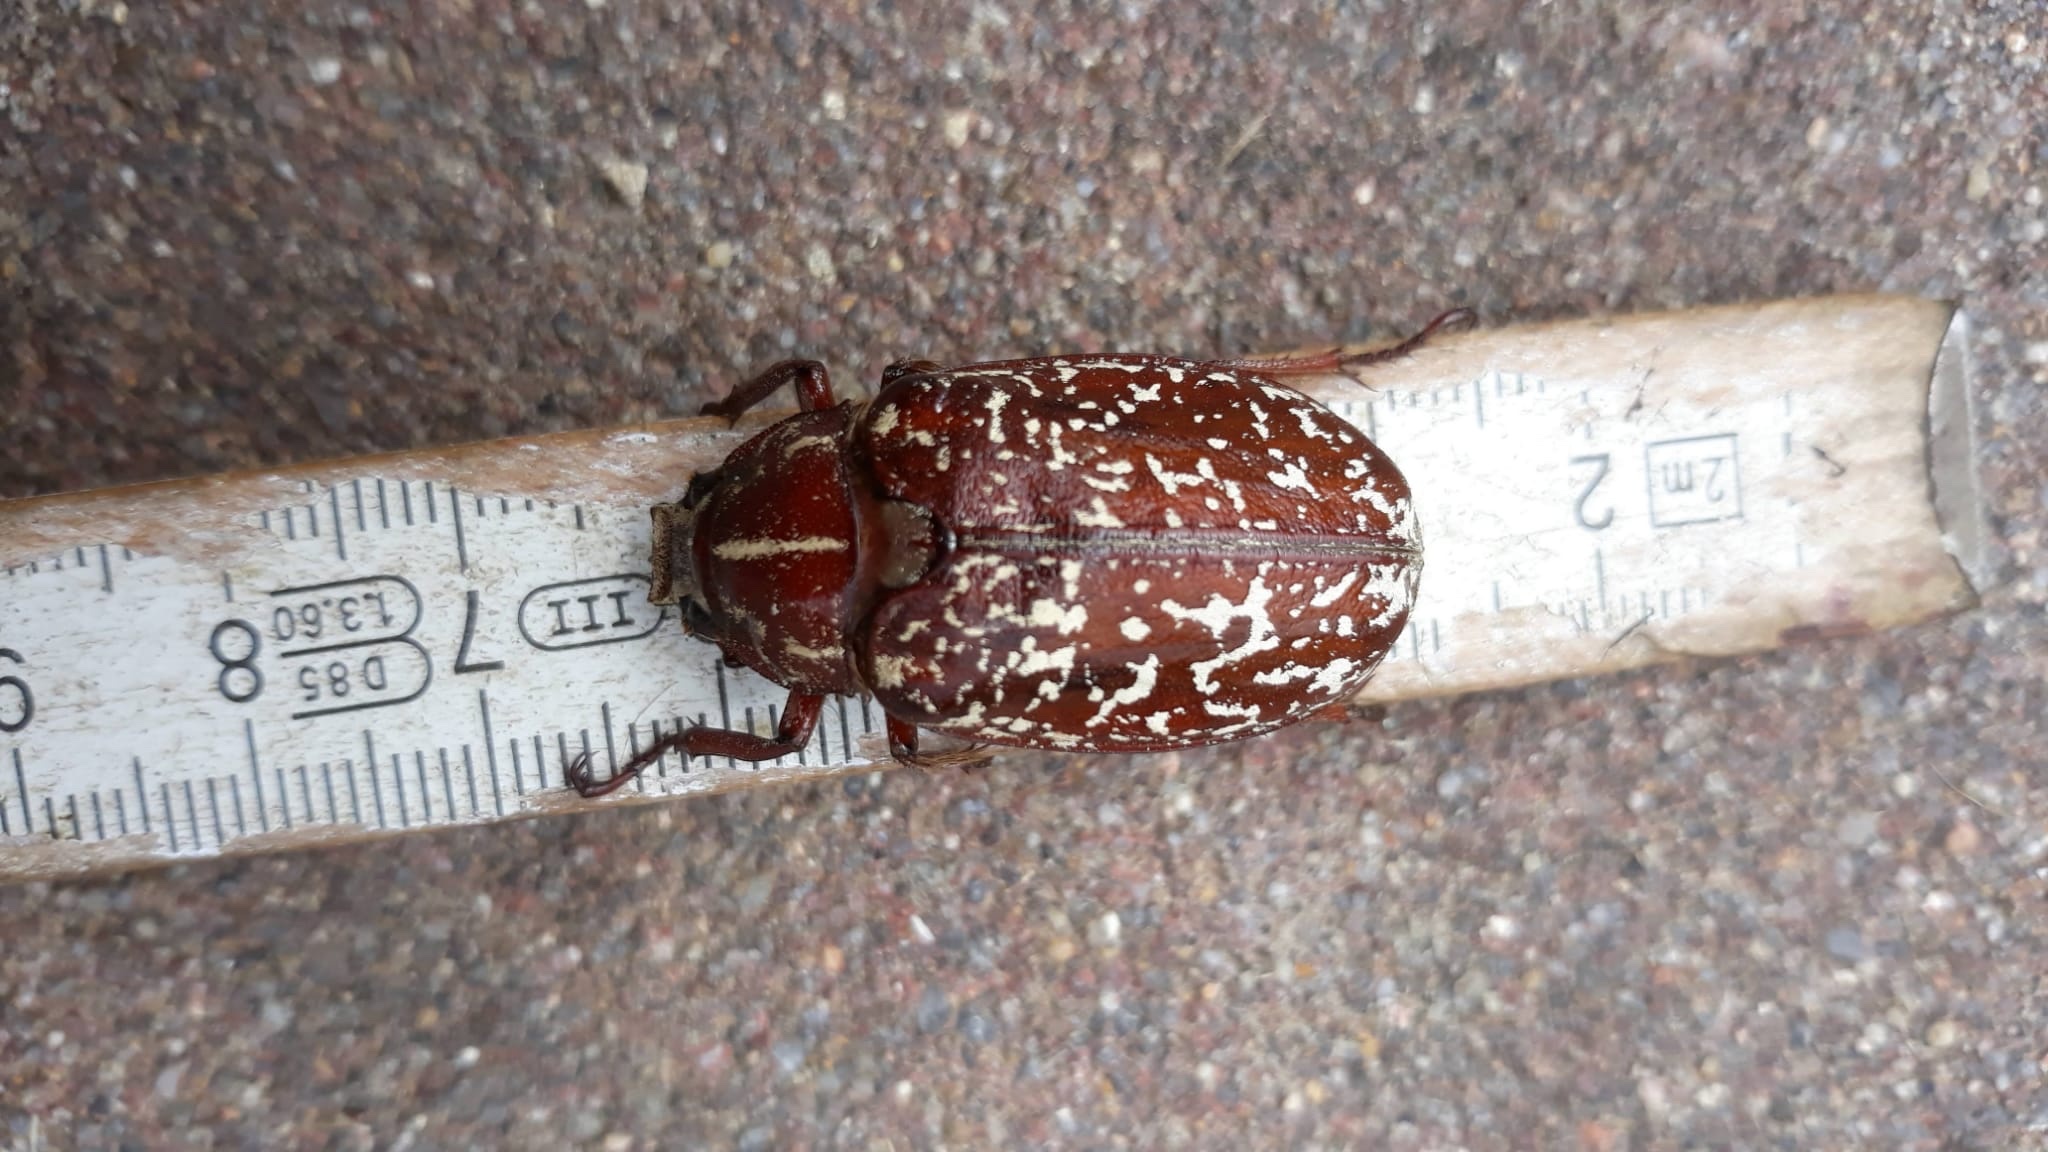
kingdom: Animalia
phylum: Arthropoda
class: Insecta
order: Coleoptera
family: Scarabaeidae
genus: Polyphylla
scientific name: Polyphylla fullo
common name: Pine chafer
